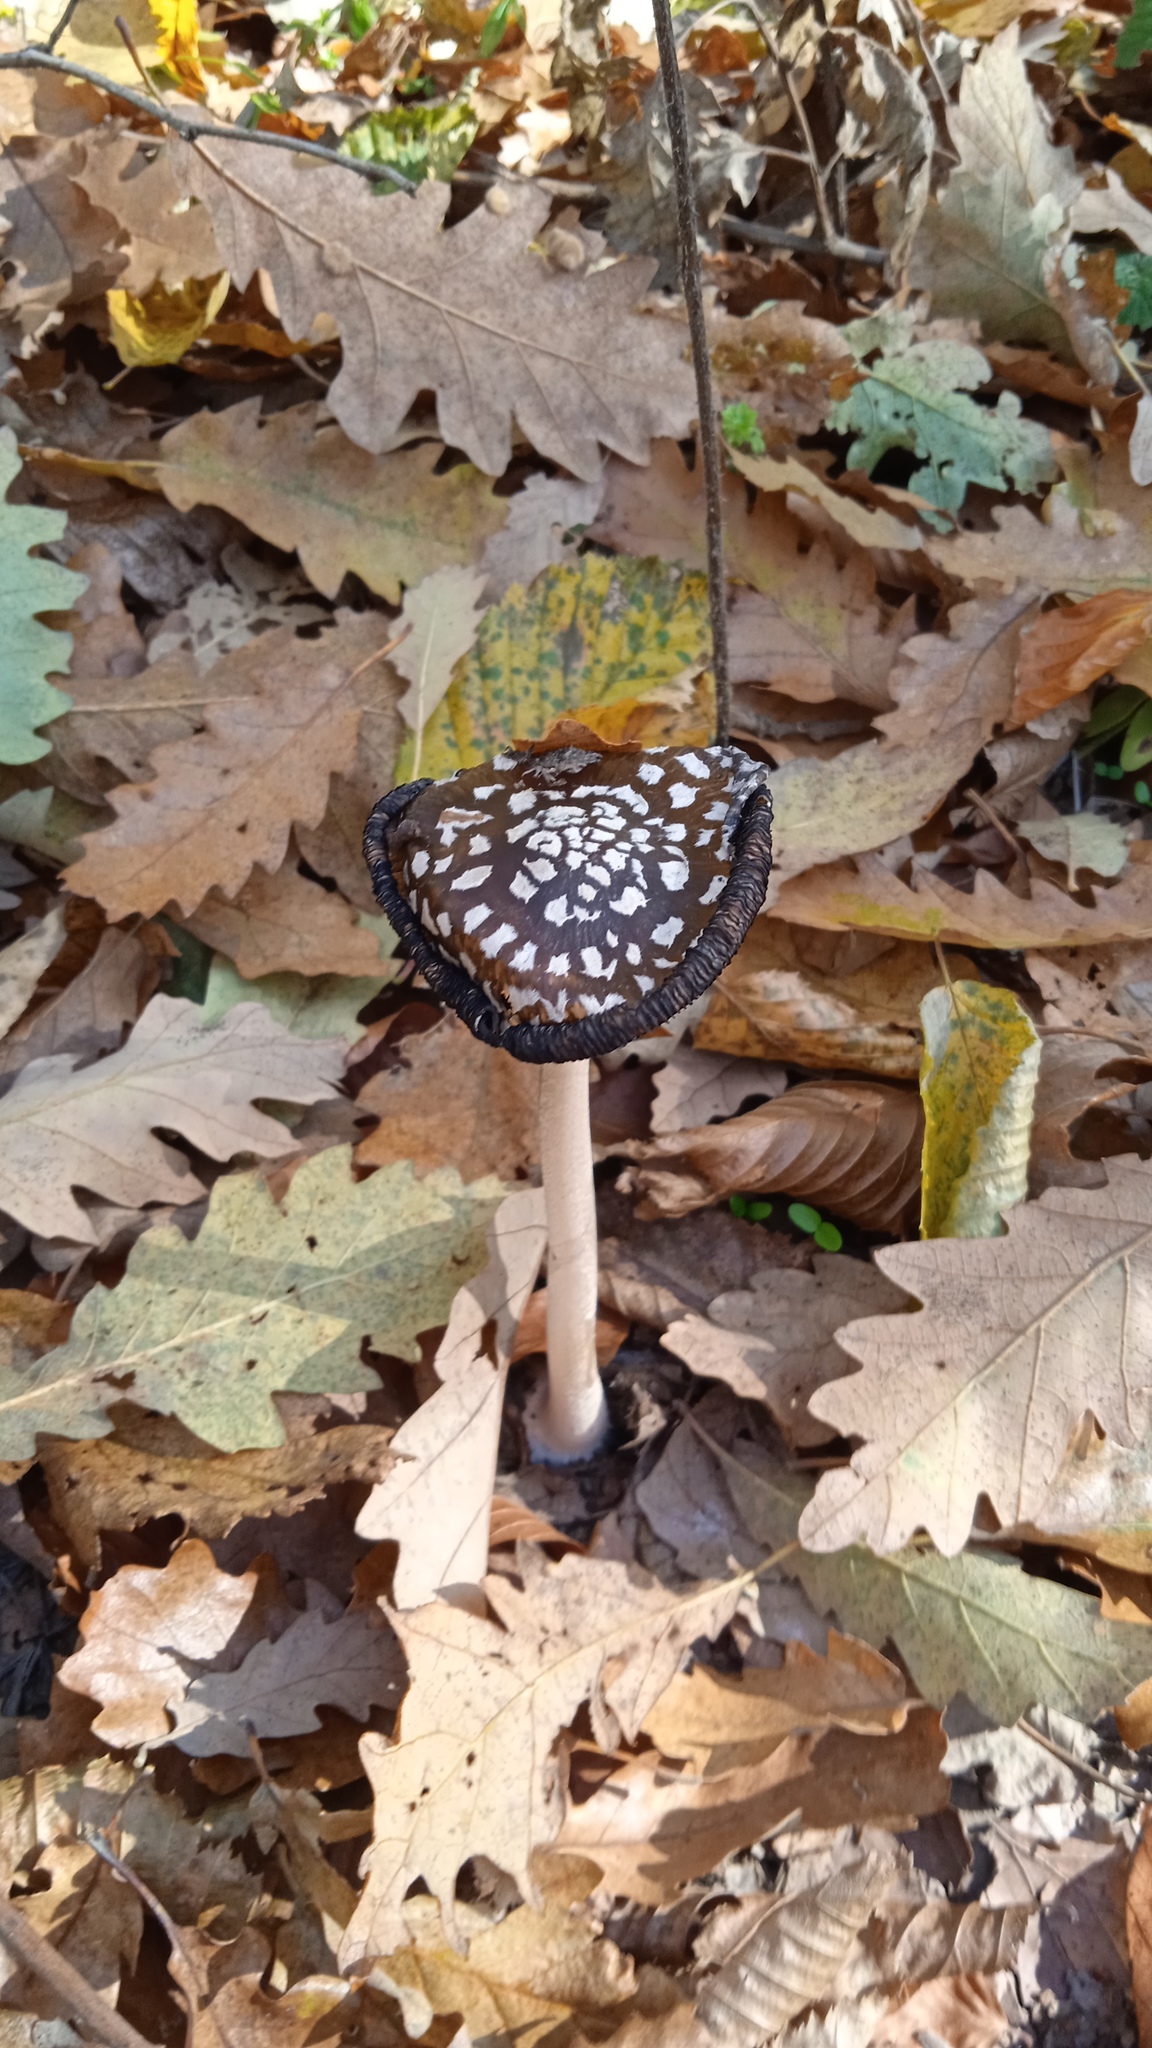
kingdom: Fungi
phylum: Basidiomycota
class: Agaricomycetes
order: Agaricales
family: Psathyrellaceae
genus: Coprinopsis
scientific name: Coprinopsis picacea
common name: Magpie inkcap
